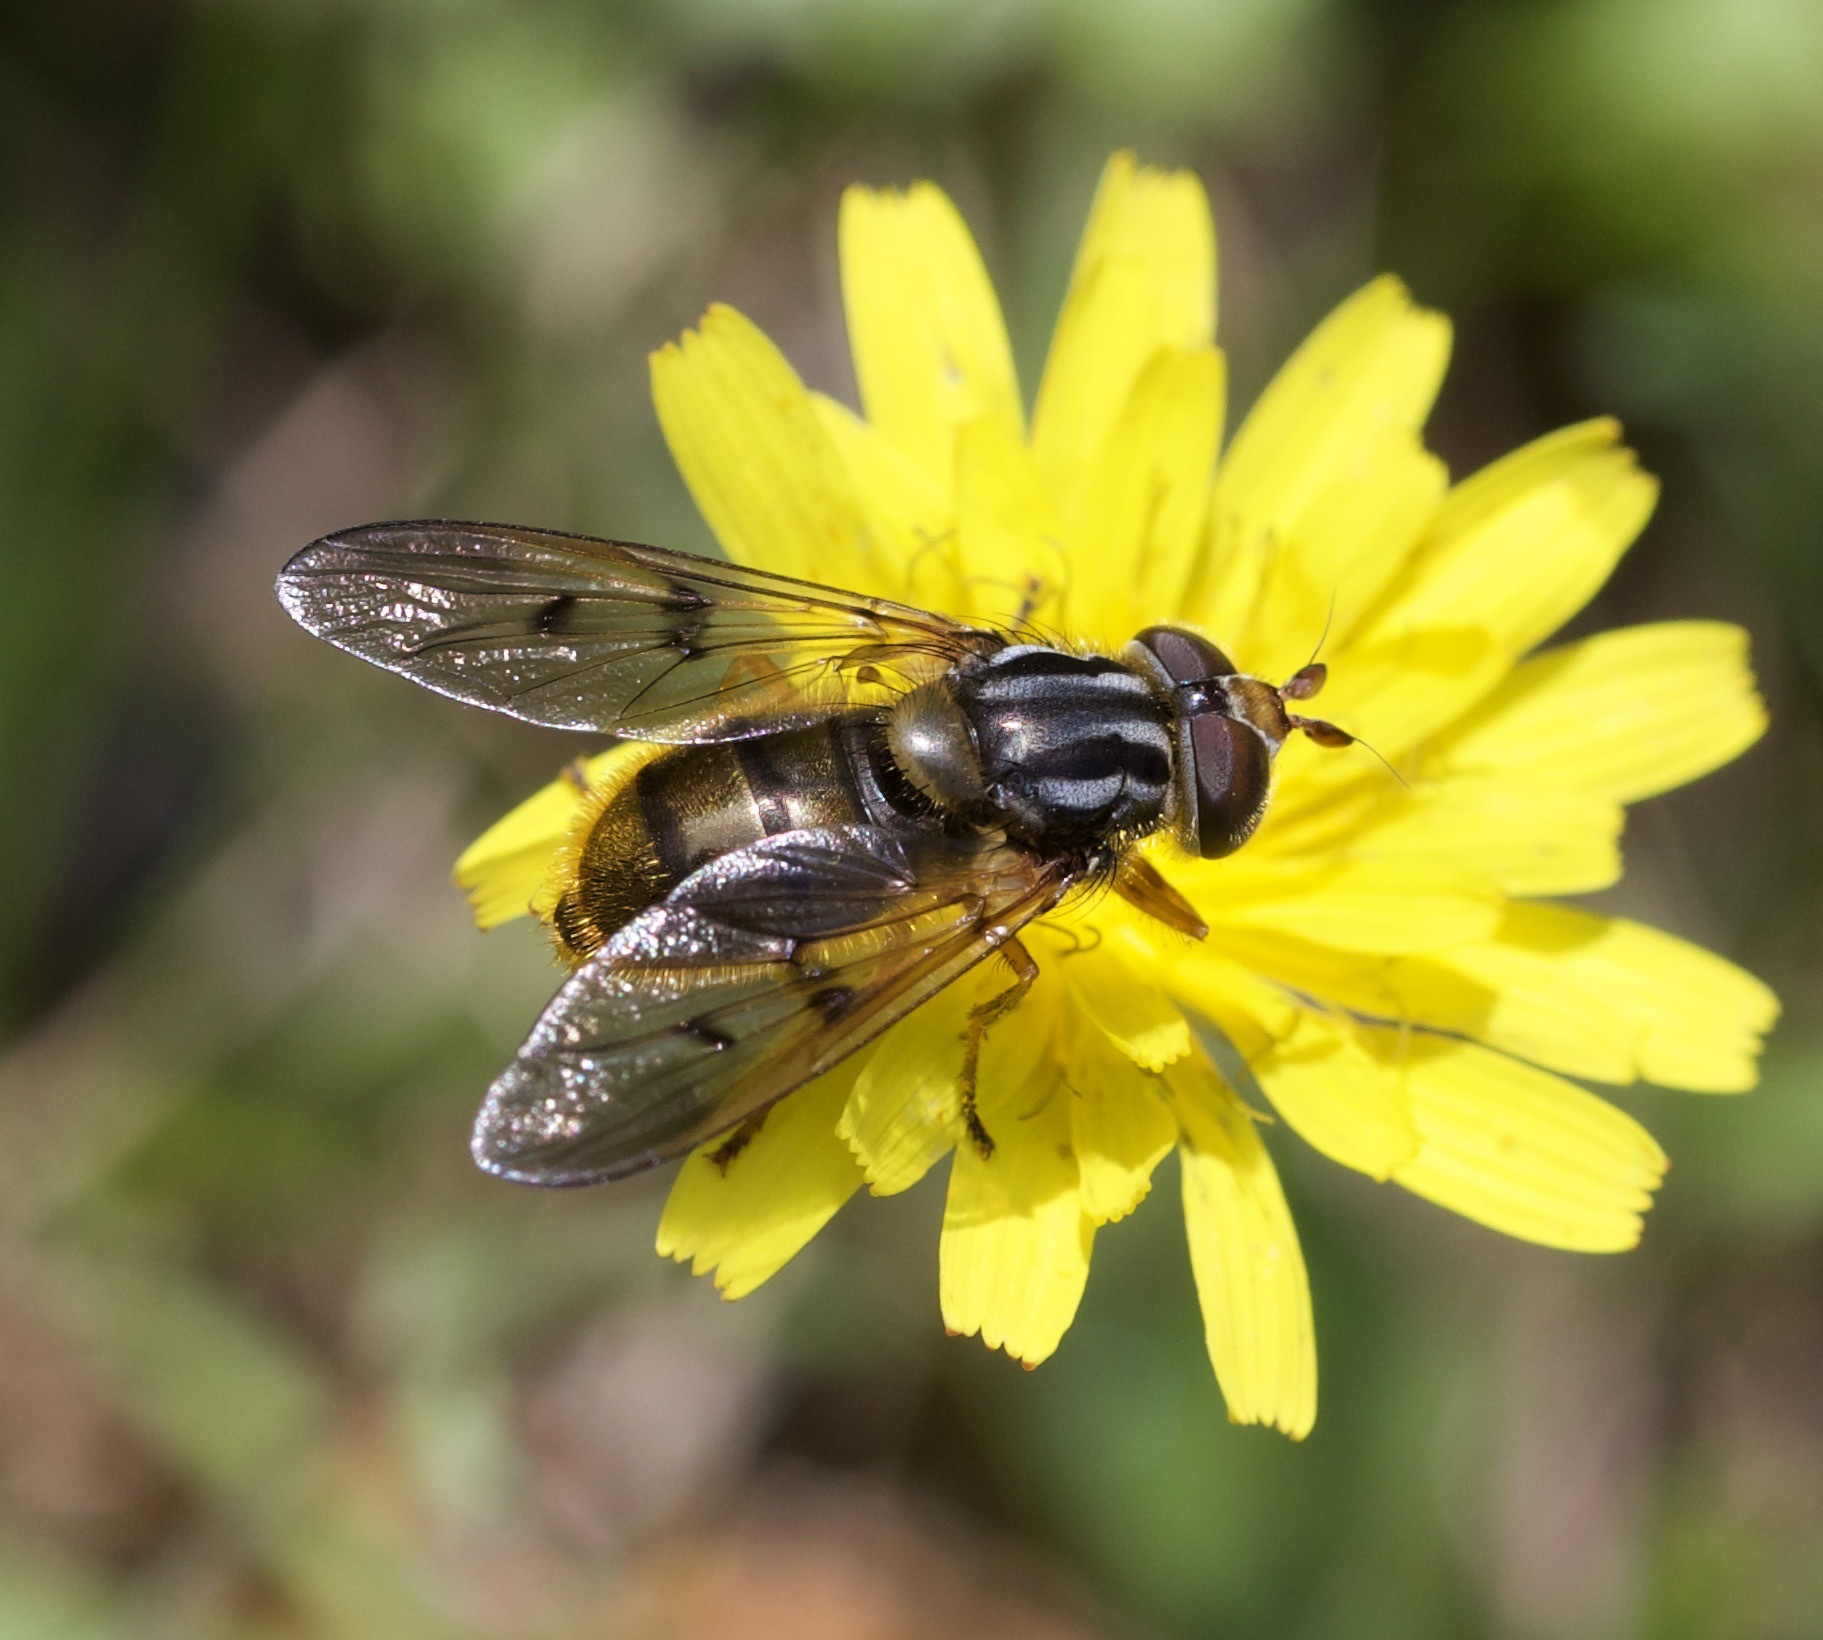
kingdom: Animalia
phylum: Arthropoda
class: Insecta
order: Diptera
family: Syrphidae
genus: Ferdinandea
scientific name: Ferdinandea cuprea
